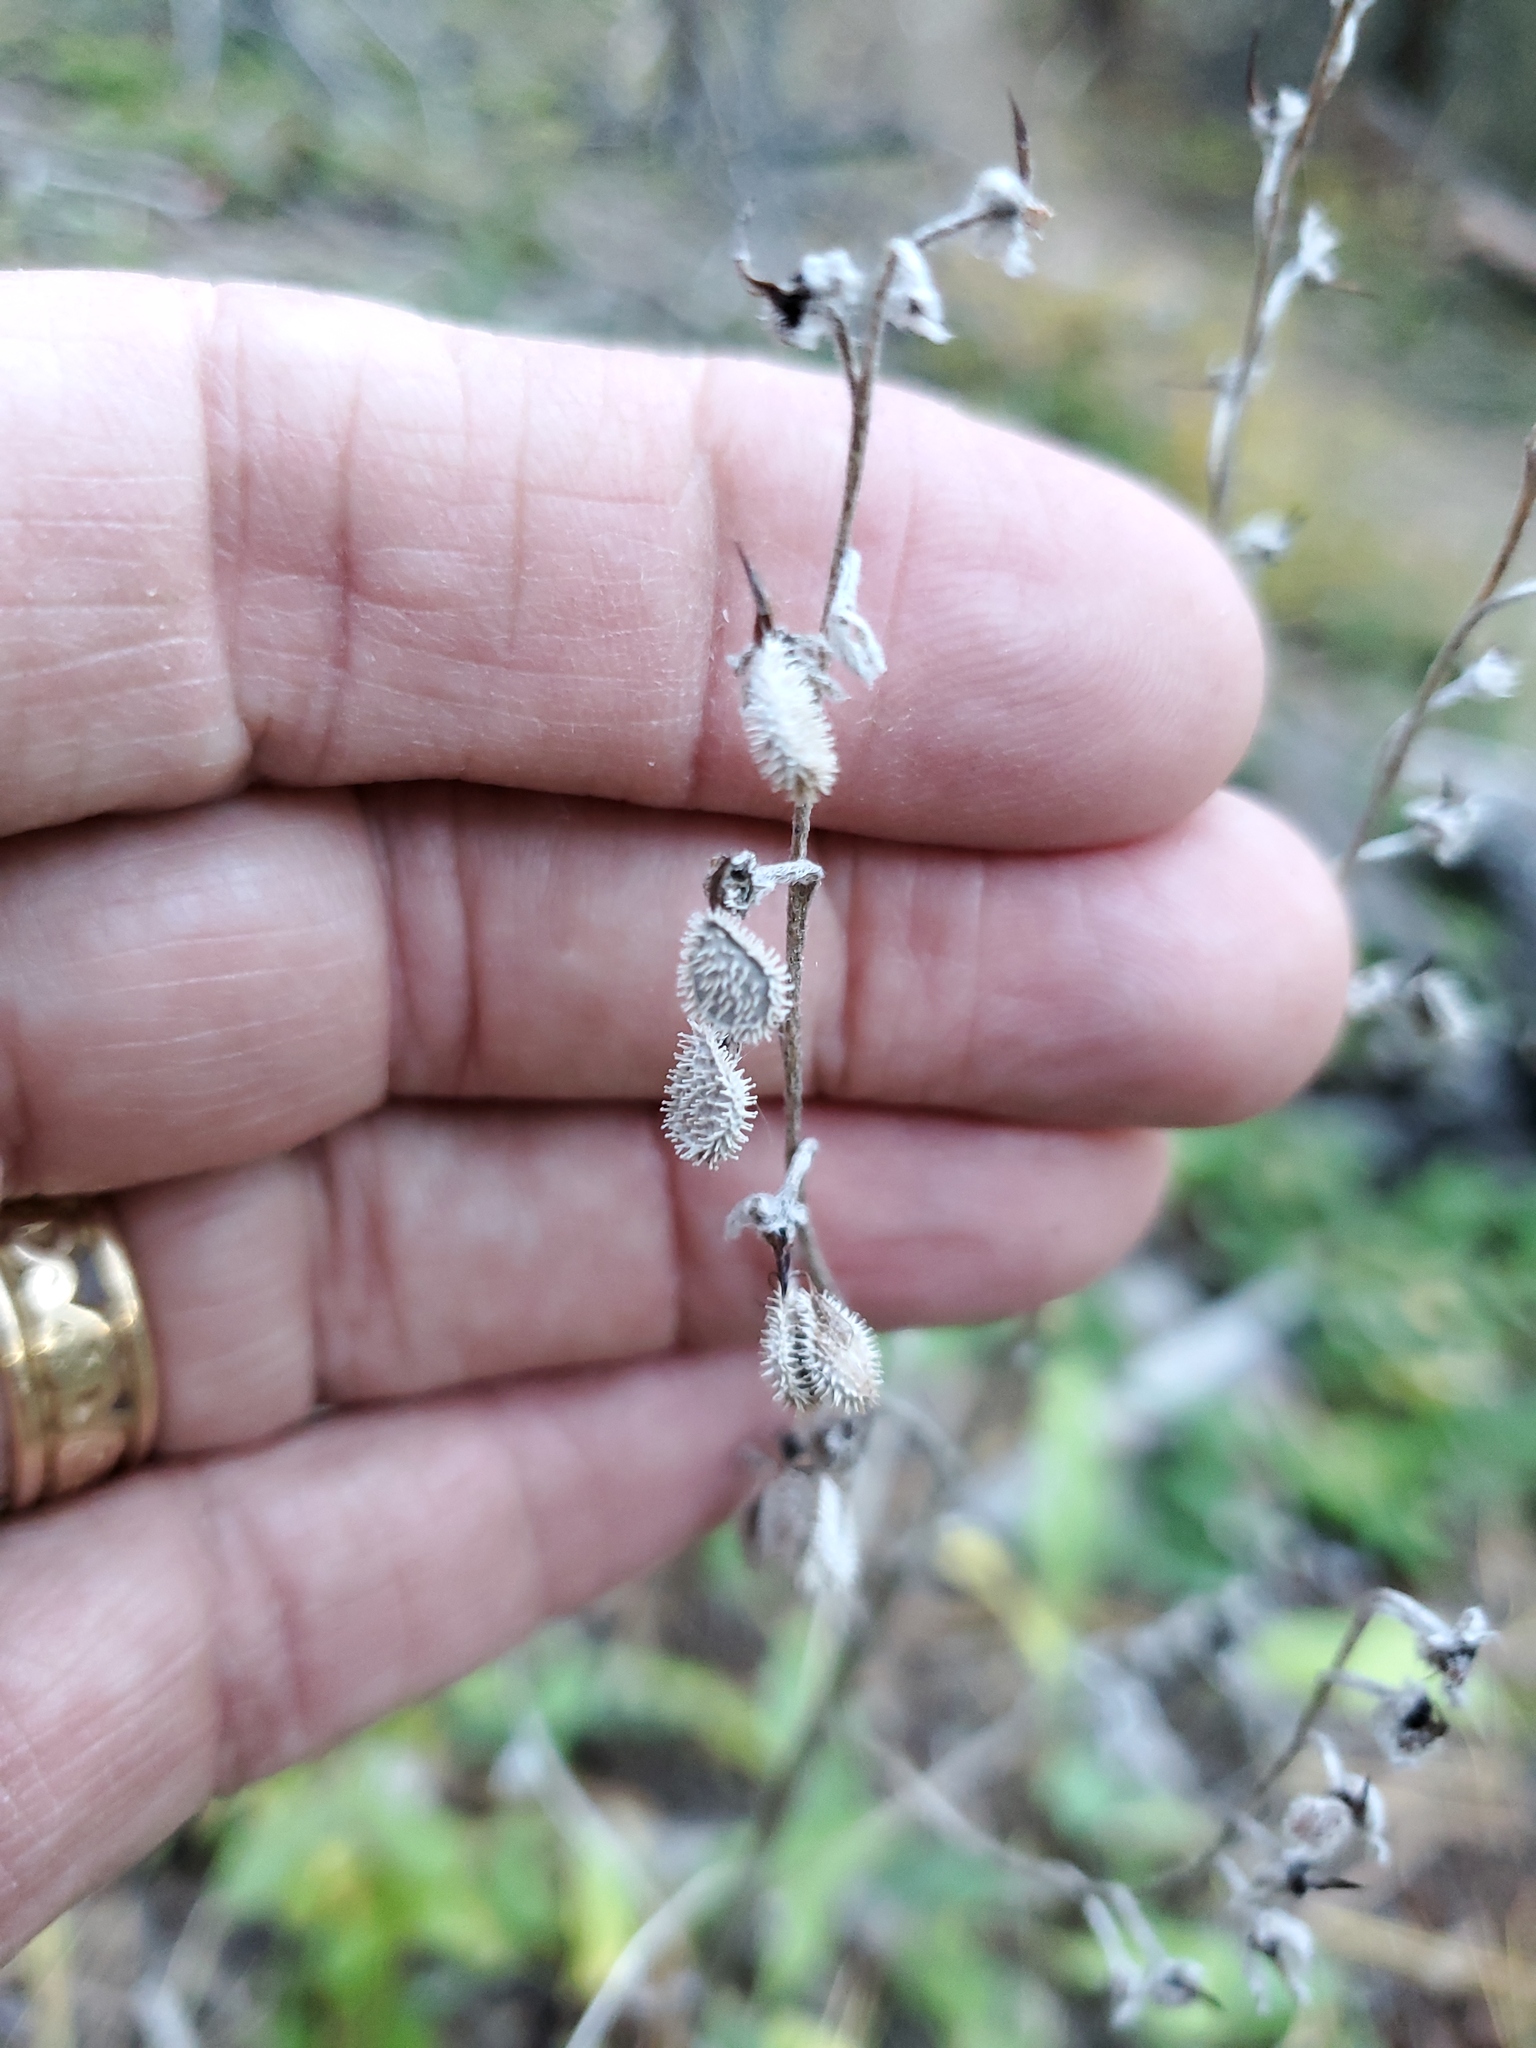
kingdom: Plantae
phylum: Tracheophyta
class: Magnoliopsida
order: Boraginales
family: Boraginaceae
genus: Cynoglossum
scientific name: Cynoglossum officinale
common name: Hound's-tongue
